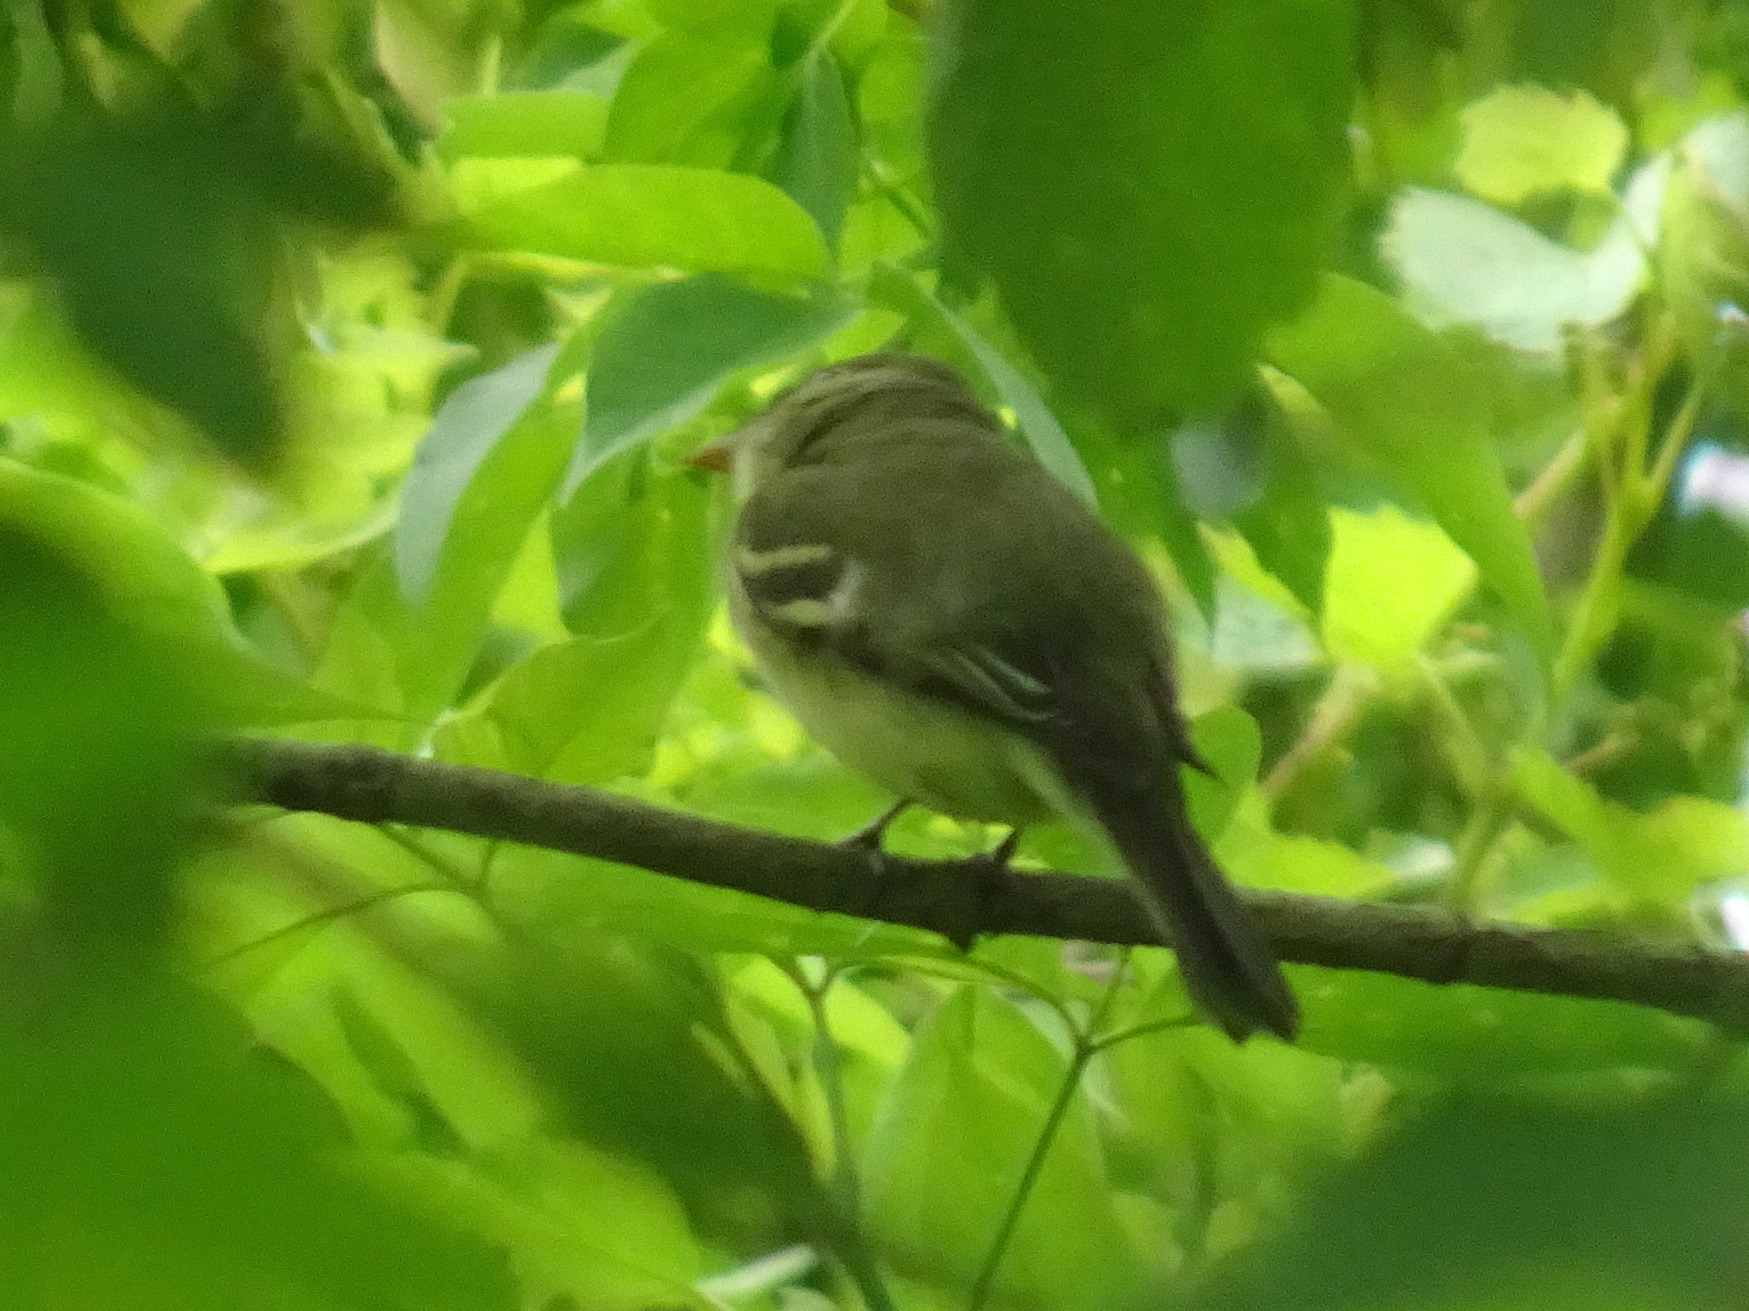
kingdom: Animalia
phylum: Chordata
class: Aves
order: Passeriformes
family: Tyrannidae
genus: Empidonax
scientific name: Empidonax flaviventris
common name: Yellow-bellied flycatcher
